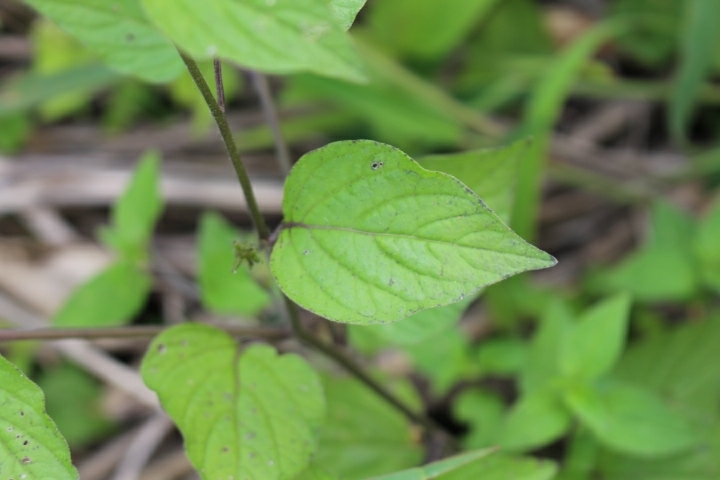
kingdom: Plantae
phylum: Tracheophyta
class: Magnoliopsida
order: Solanales
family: Solanaceae
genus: Browallia
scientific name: Browallia americana
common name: Jamaican forget-me-not
